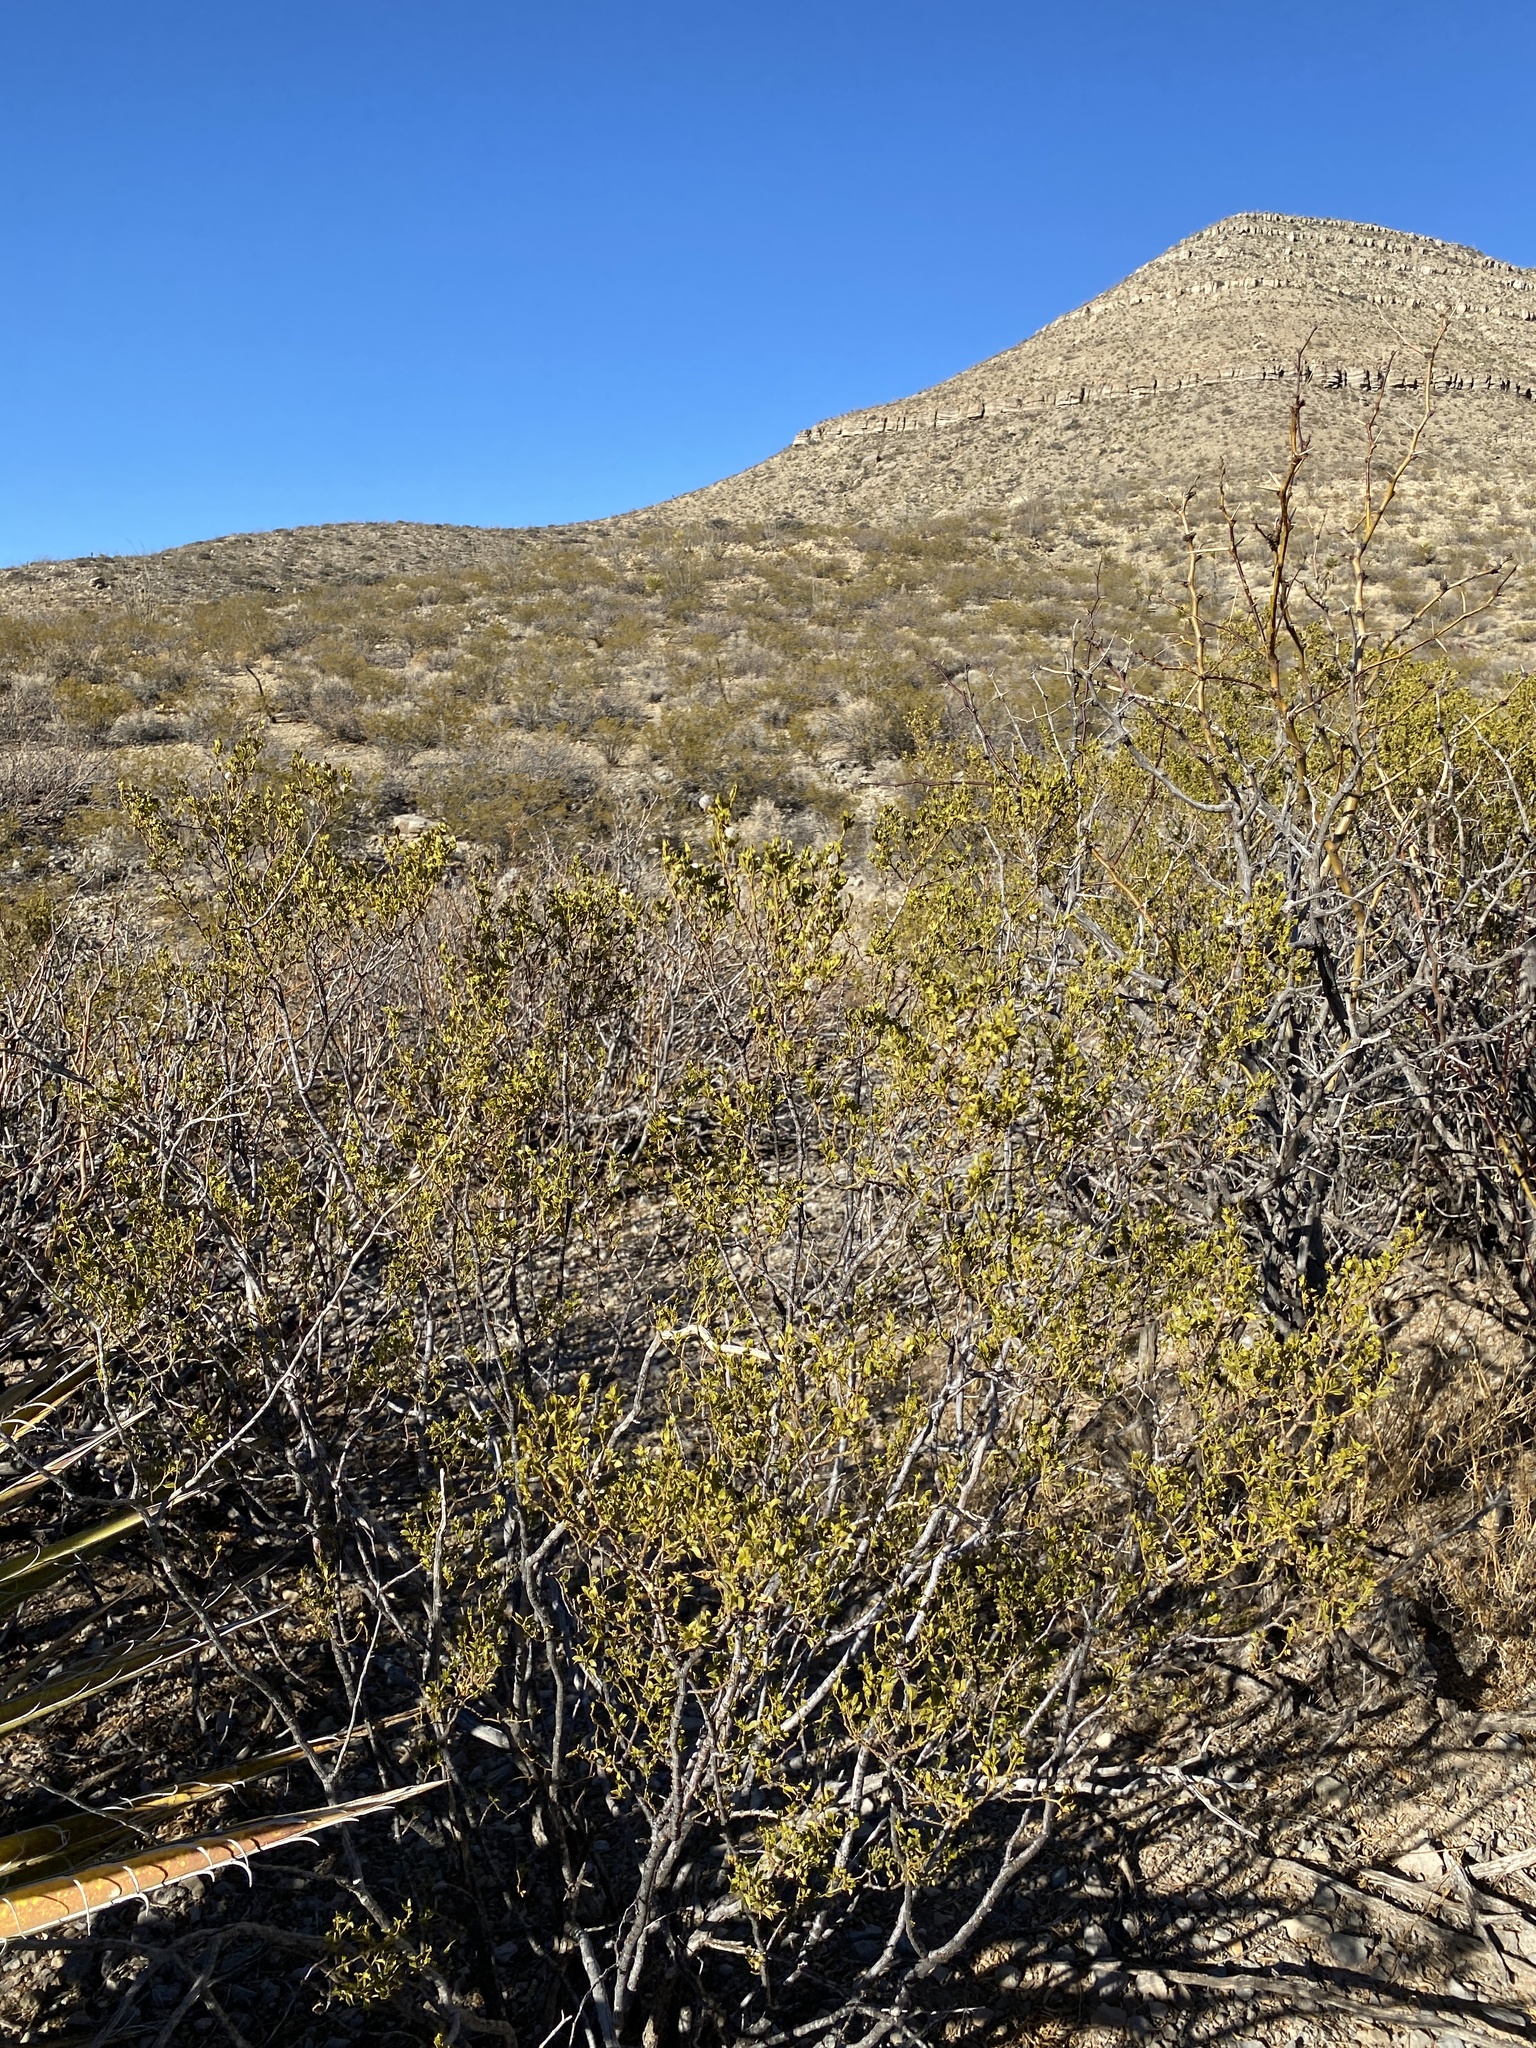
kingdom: Plantae
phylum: Tracheophyta
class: Magnoliopsida
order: Zygophyllales
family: Zygophyllaceae
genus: Larrea
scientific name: Larrea tridentata
